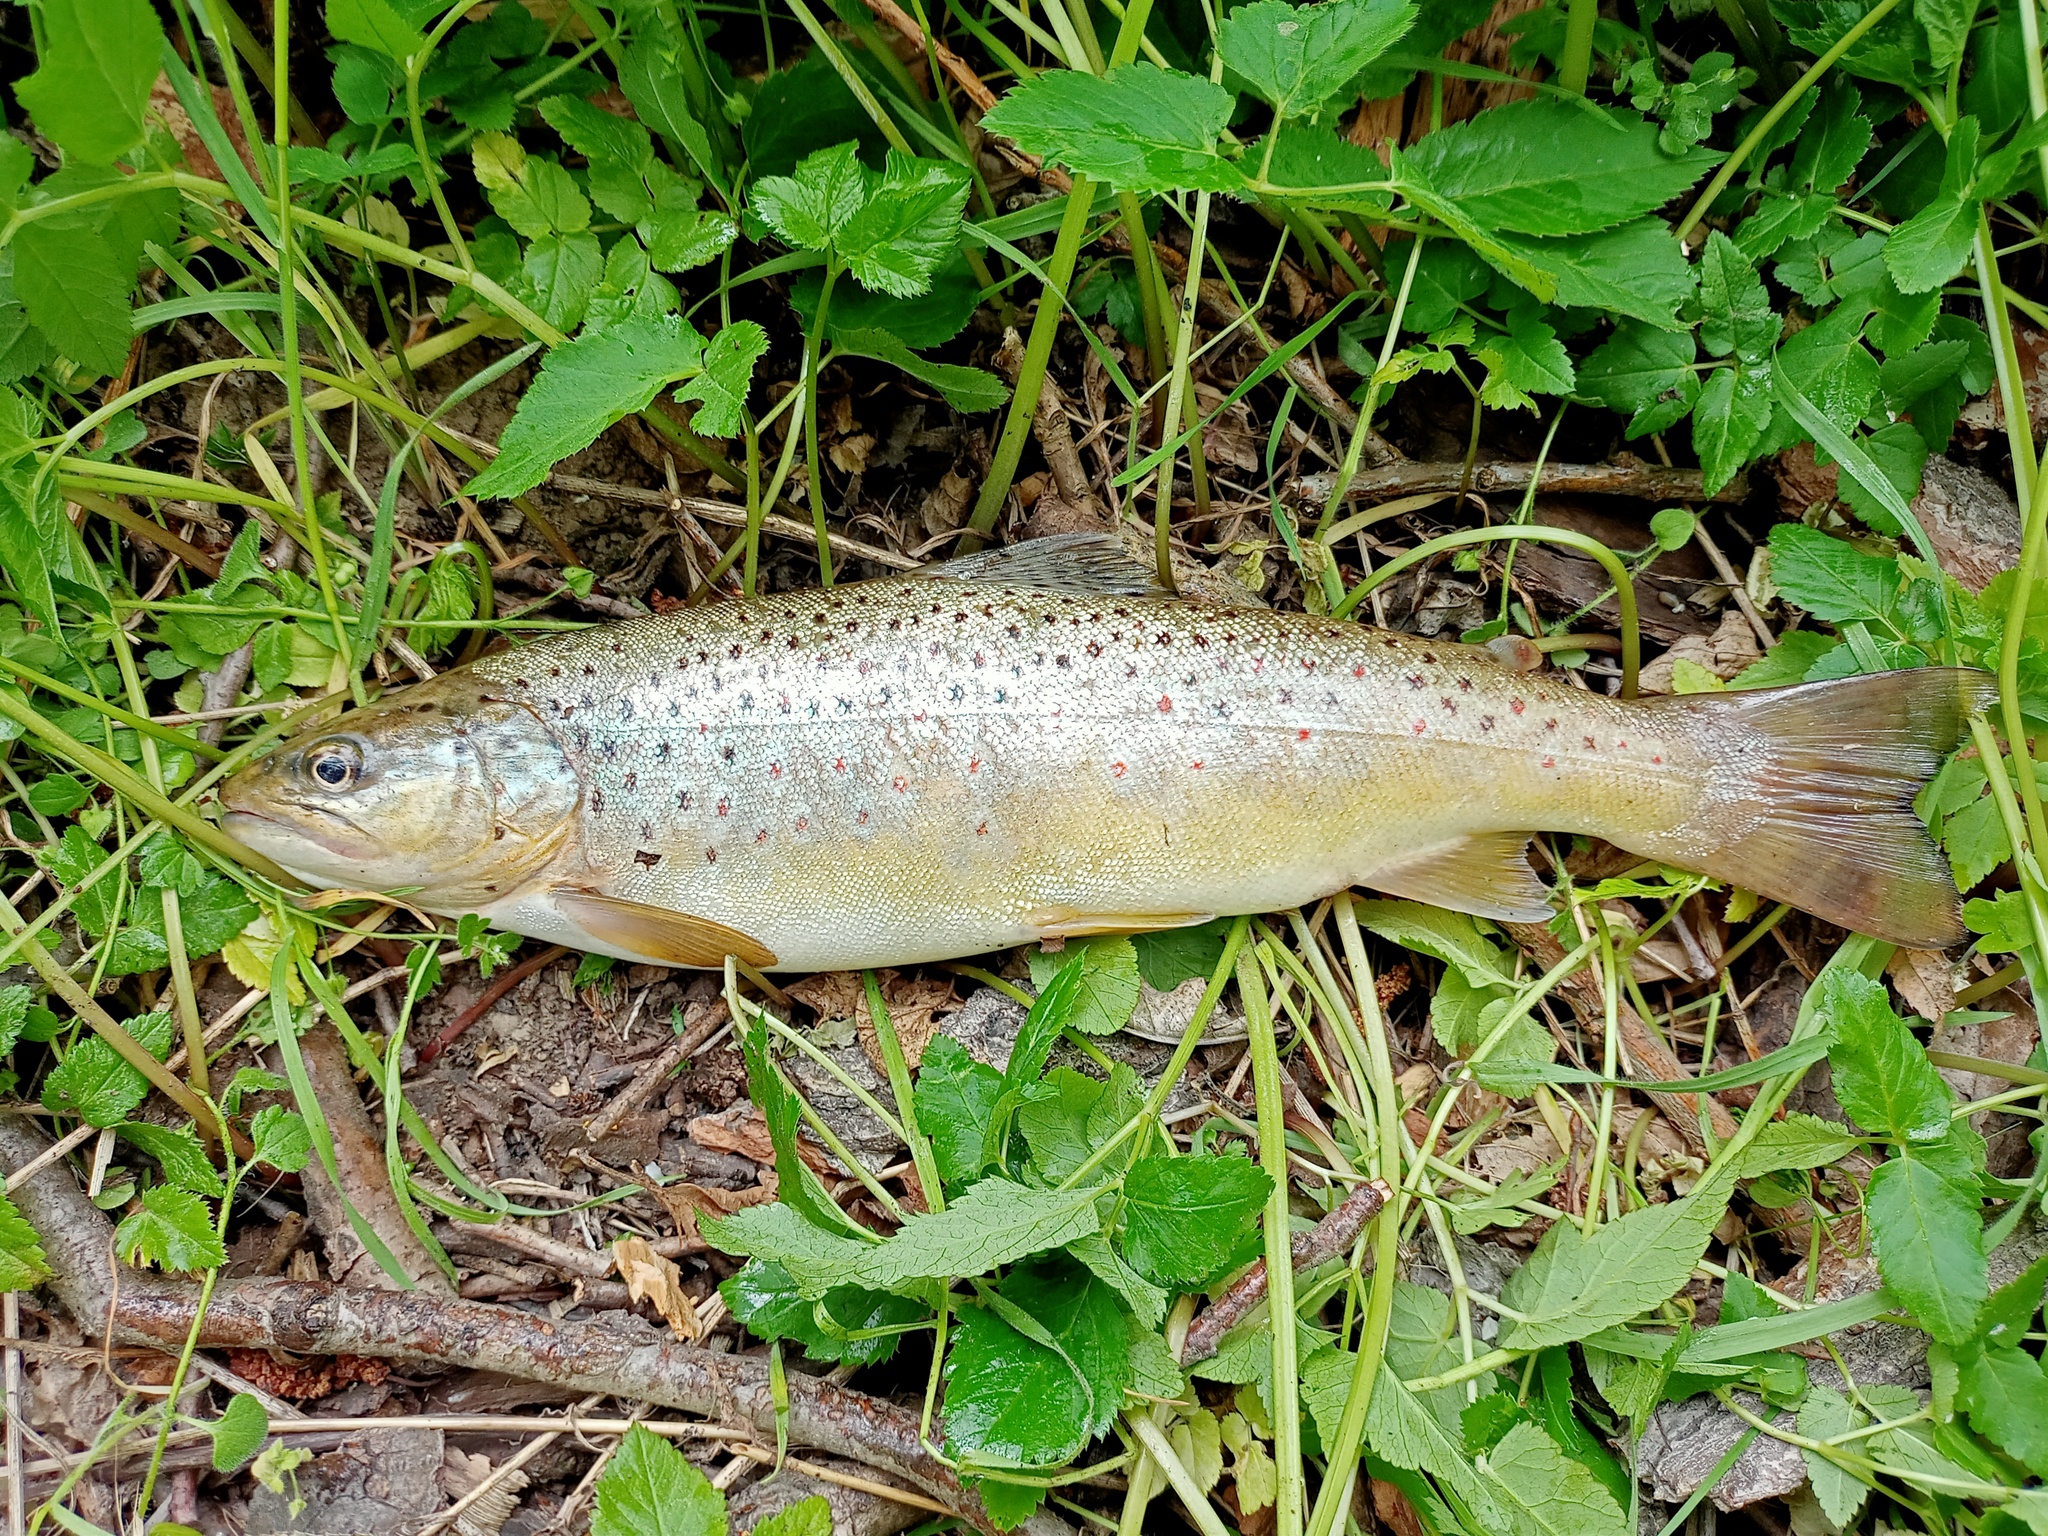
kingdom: Animalia
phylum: Chordata
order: Salmoniformes
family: Salmonidae
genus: Salmo
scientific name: Salmo trutta
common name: Brown trout
